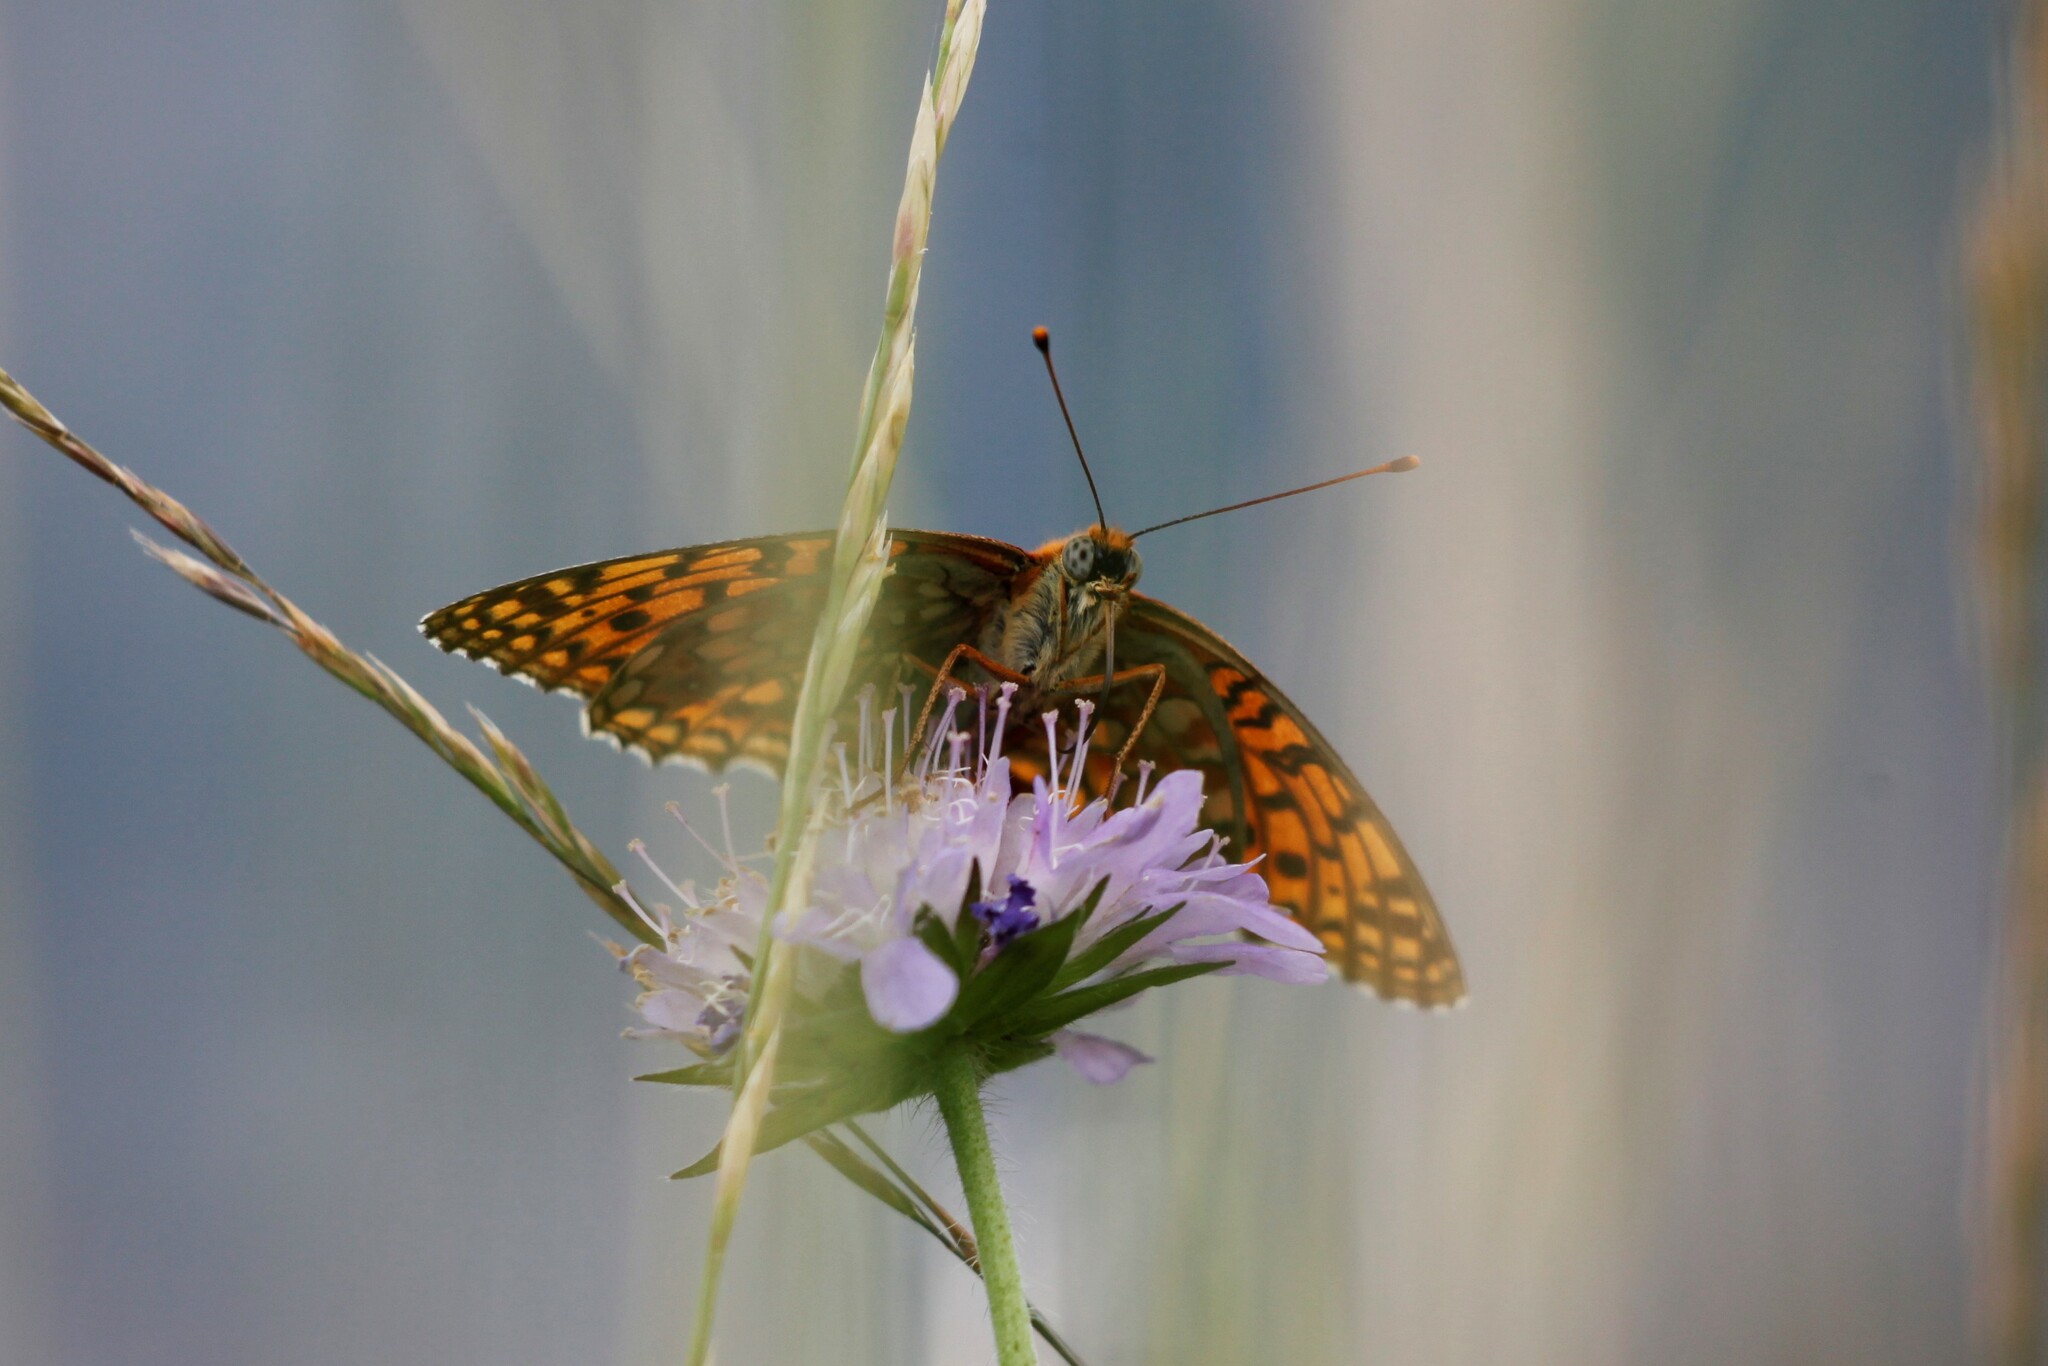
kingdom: Animalia
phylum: Arthropoda
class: Insecta
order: Lepidoptera
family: Nymphalidae
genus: Fabriciana
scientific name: Fabriciana niobe
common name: Niobe fritillary
